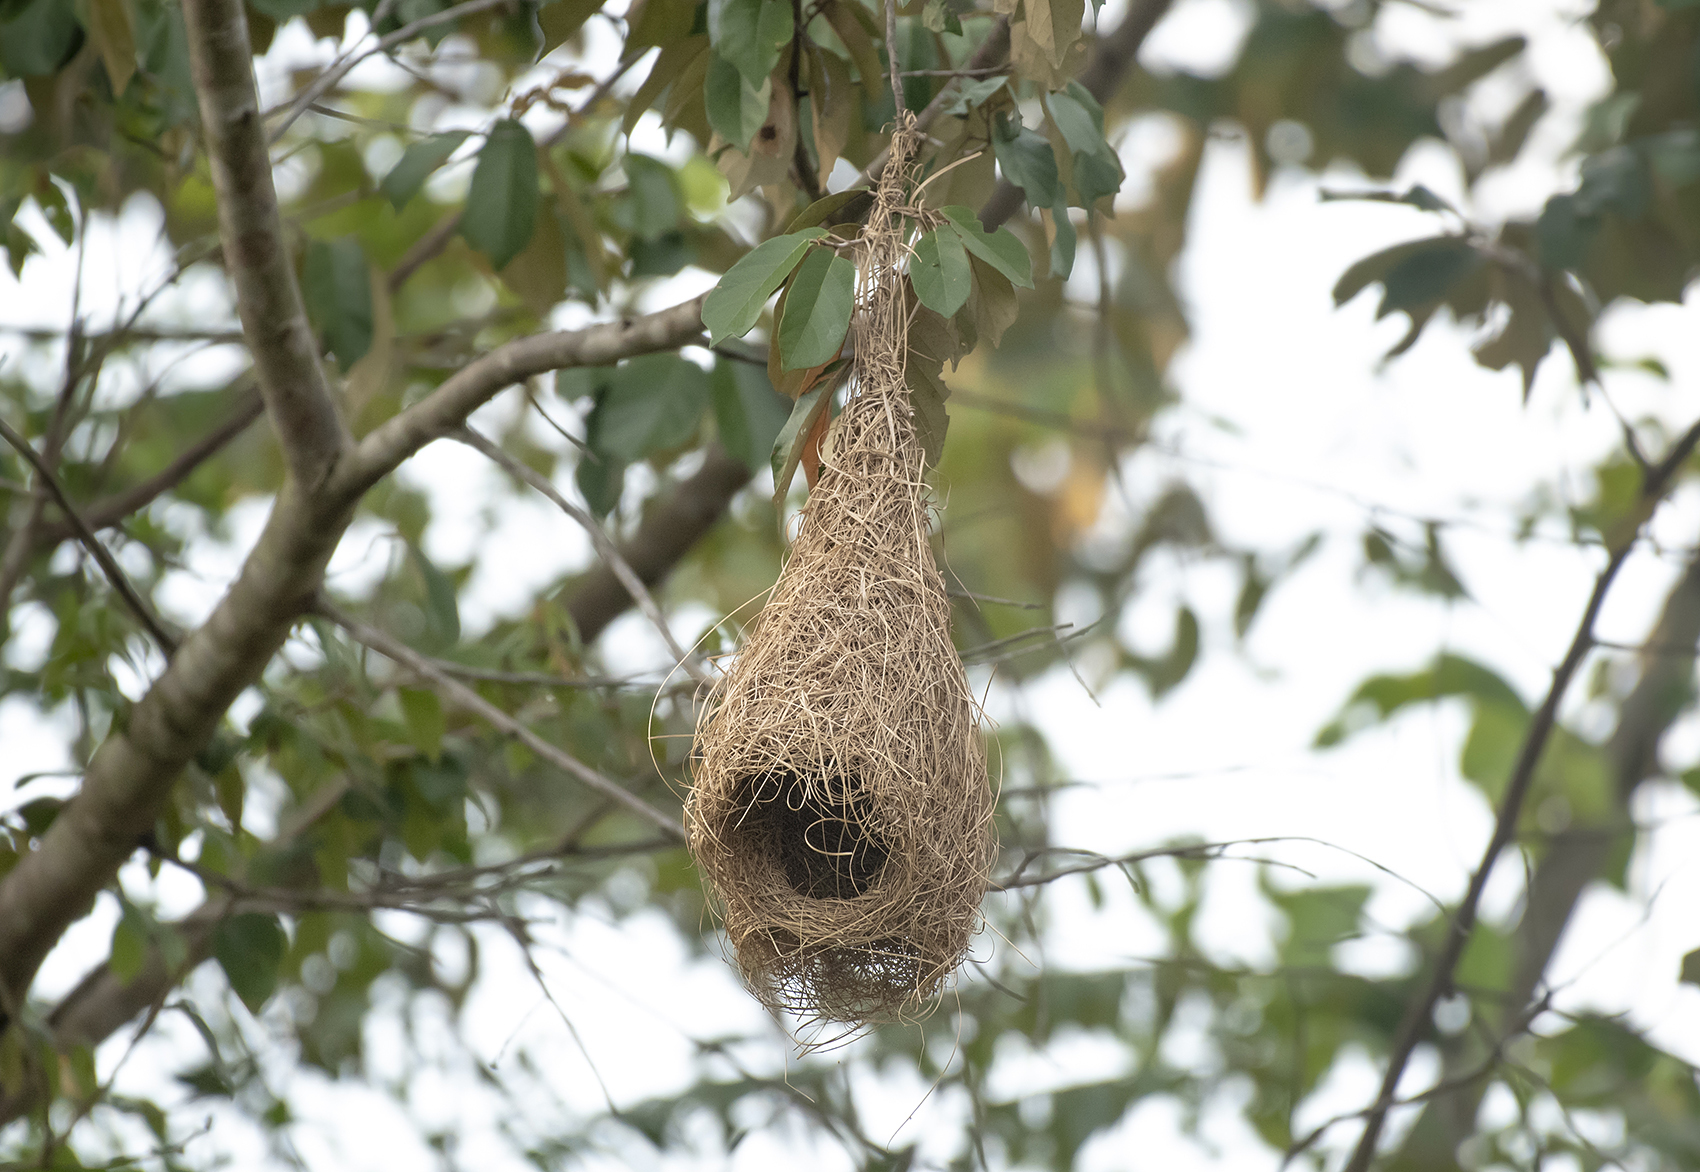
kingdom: Animalia
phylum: Chordata
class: Aves
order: Passeriformes
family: Ploceidae
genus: Ploceus
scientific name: Ploceus philippinus
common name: Baya weaver
